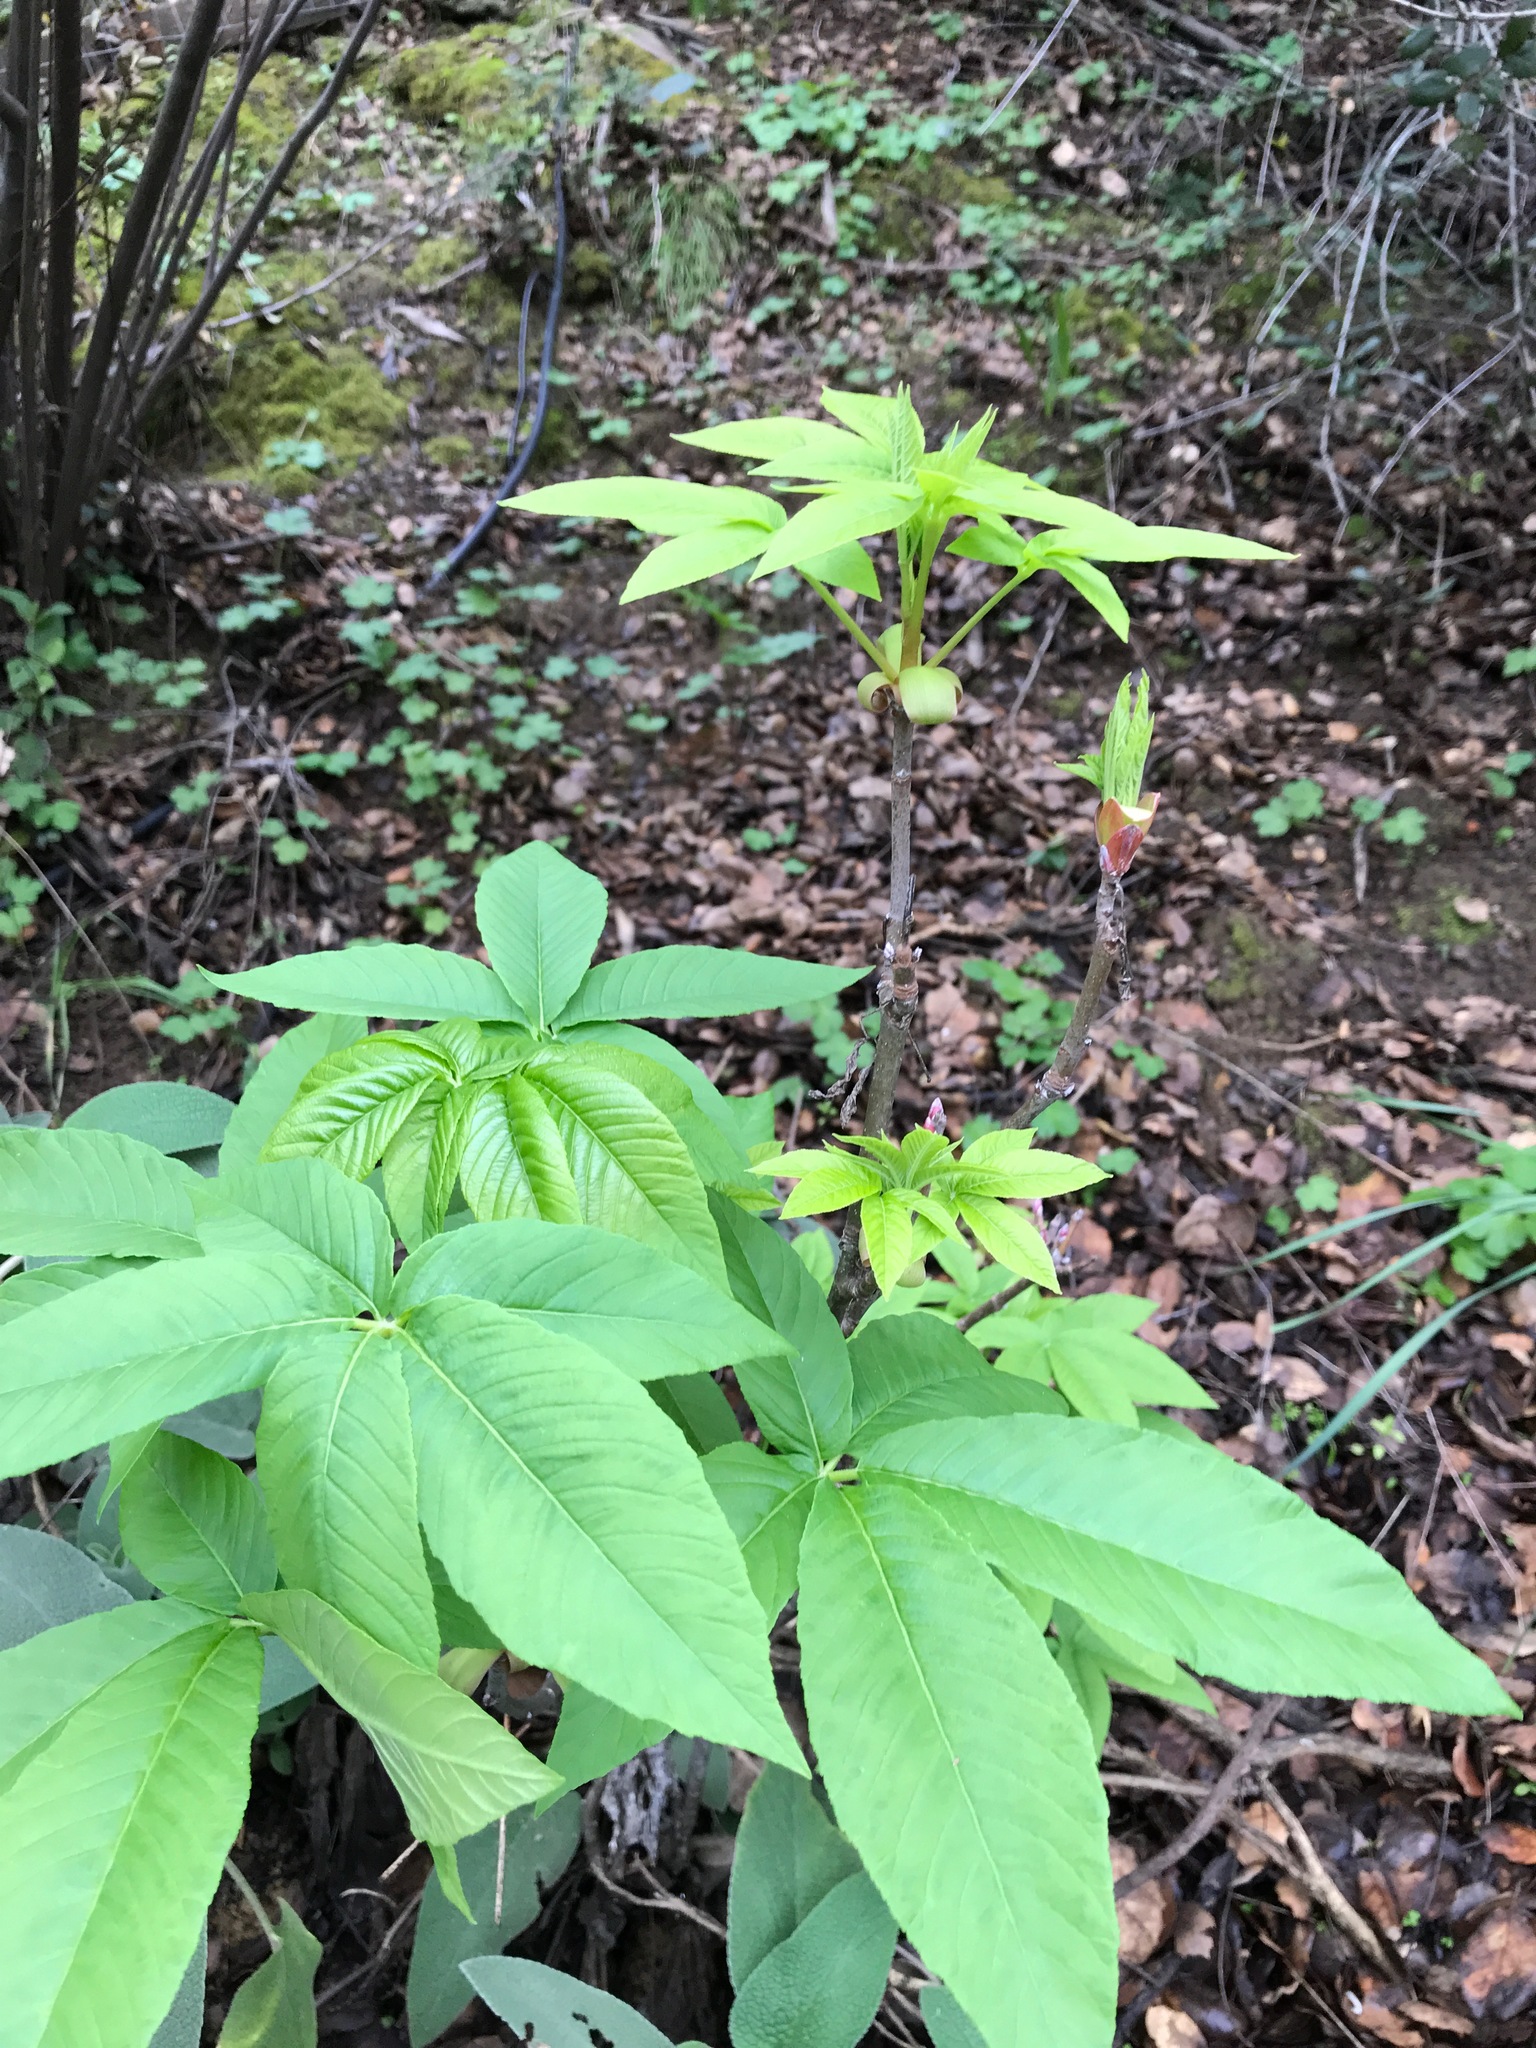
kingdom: Plantae
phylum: Tracheophyta
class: Magnoliopsida
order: Sapindales
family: Sapindaceae
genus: Aesculus
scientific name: Aesculus californica
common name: California buckeye
